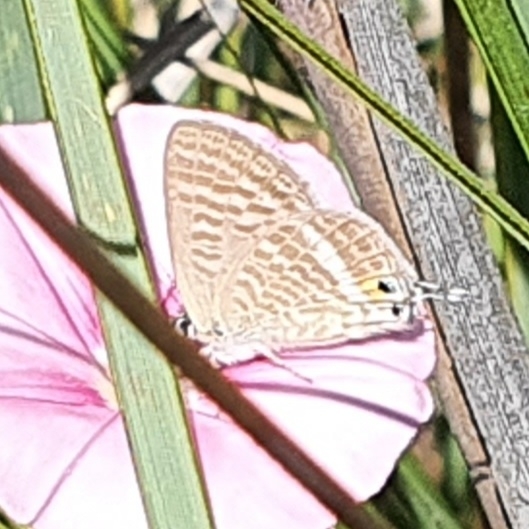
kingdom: Animalia
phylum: Arthropoda
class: Insecta
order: Lepidoptera
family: Lycaenidae
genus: Lampides
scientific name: Lampides boeticus
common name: Long-tailed blue
